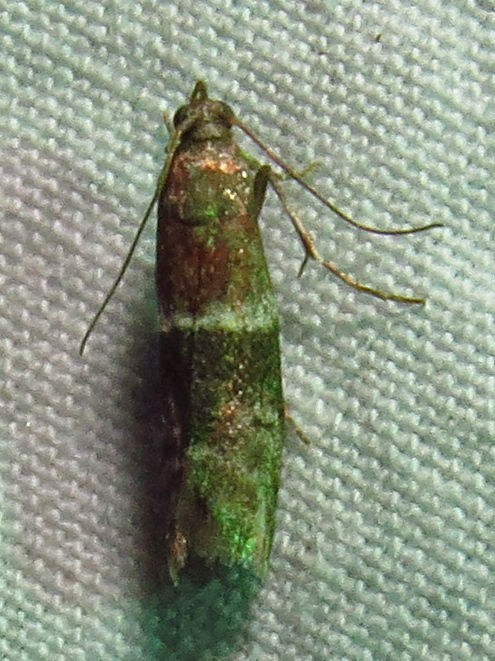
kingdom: Animalia
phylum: Arthropoda
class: Insecta
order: Lepidoptera
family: Pyralidae
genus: Moodna
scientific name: Moodna ostrinella
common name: Darker moodna moth
